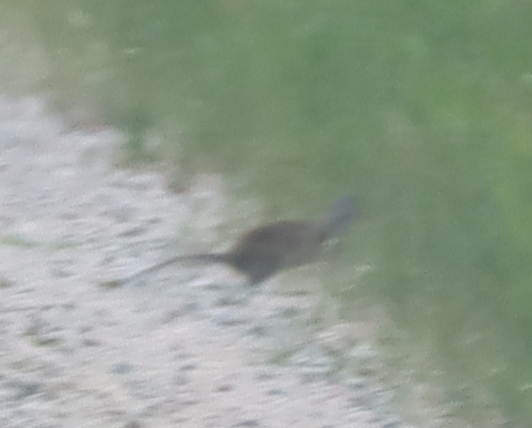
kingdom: Animalia
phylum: Chordata
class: Mammalia
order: Rodentia
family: Sciuridae
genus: Poliocitellus
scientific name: Poliocitellus franklinii
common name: Franklin's ground squirrel
